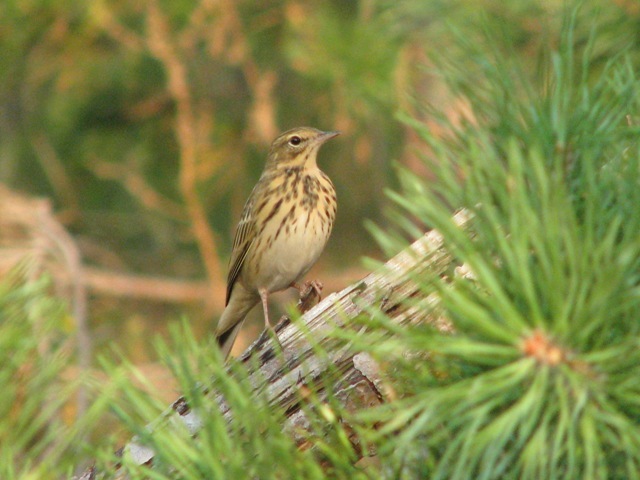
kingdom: Animalia
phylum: Chordata
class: Aves
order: Passeriformes
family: Motacillidae
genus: Anthus
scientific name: Anthus trivialis
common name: Tree pipit
